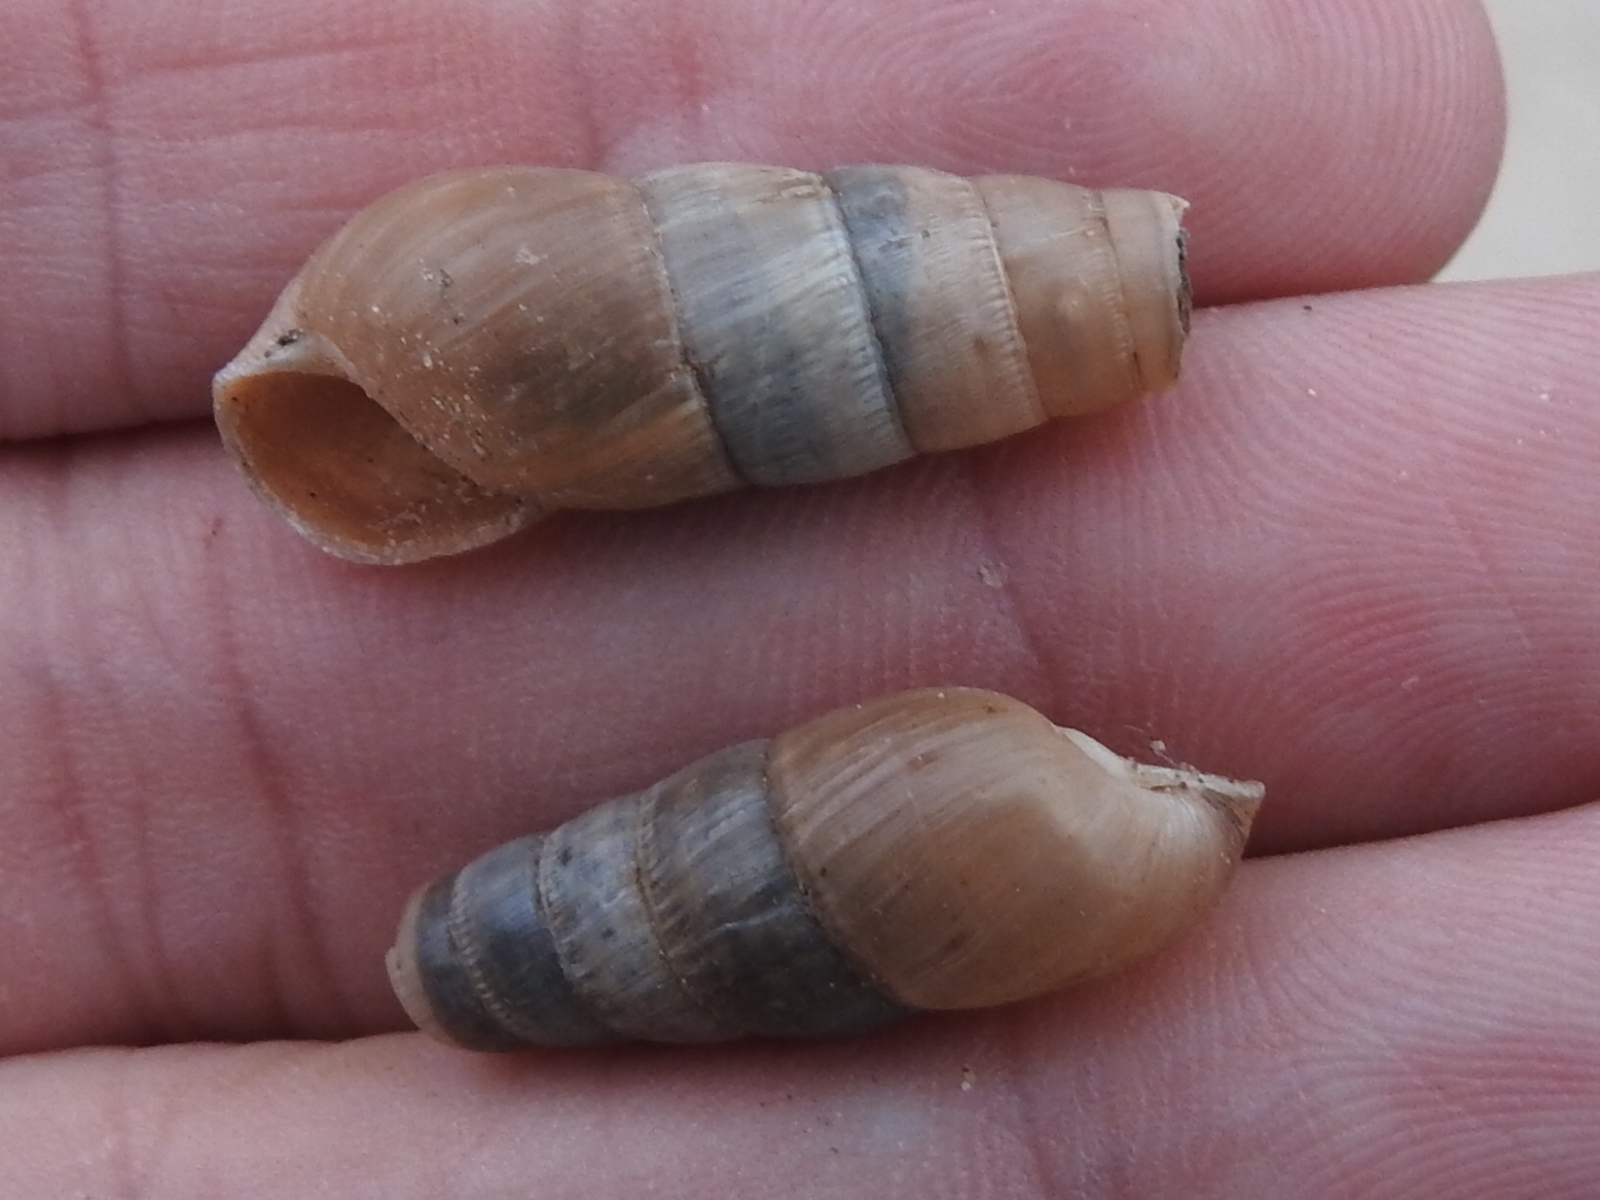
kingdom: Animalia
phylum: Mollusca
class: Gastropoda
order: Stylommatophora
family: Achatinidae
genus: Rumina
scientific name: Rumina decollata
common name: Decollate snail
